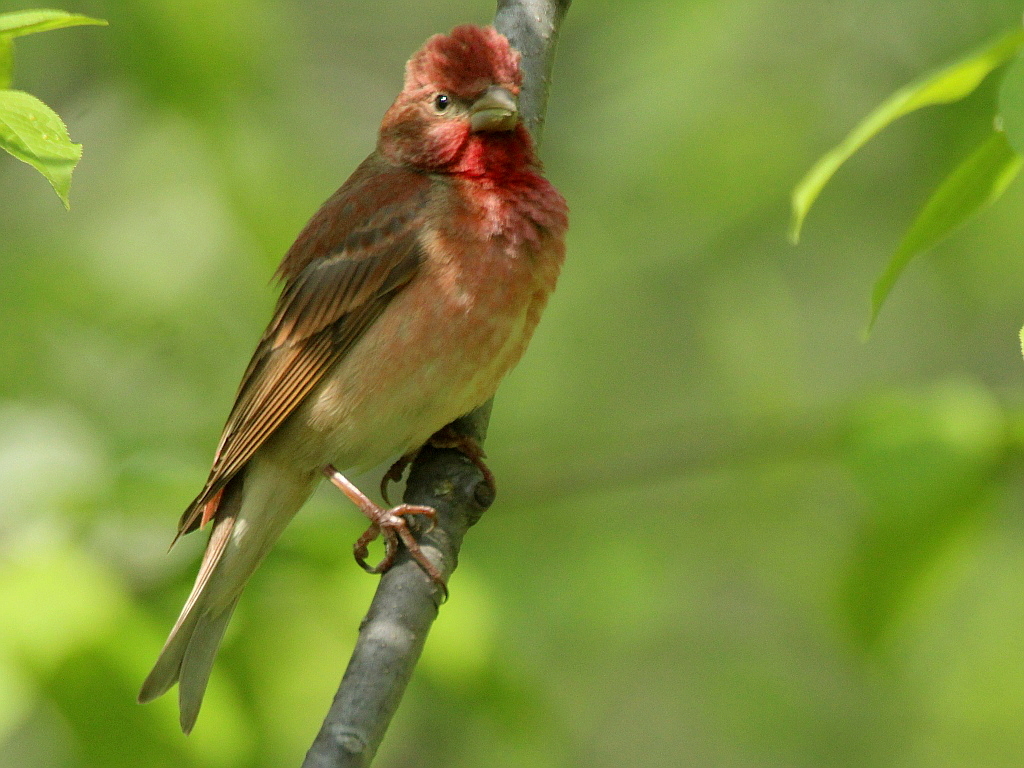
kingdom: Animalia
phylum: Chordata
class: Aves
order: Passeriformes
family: Fringillidae
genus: Carpodacus
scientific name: Carpodacus erythrinus
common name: Common rosefinch
